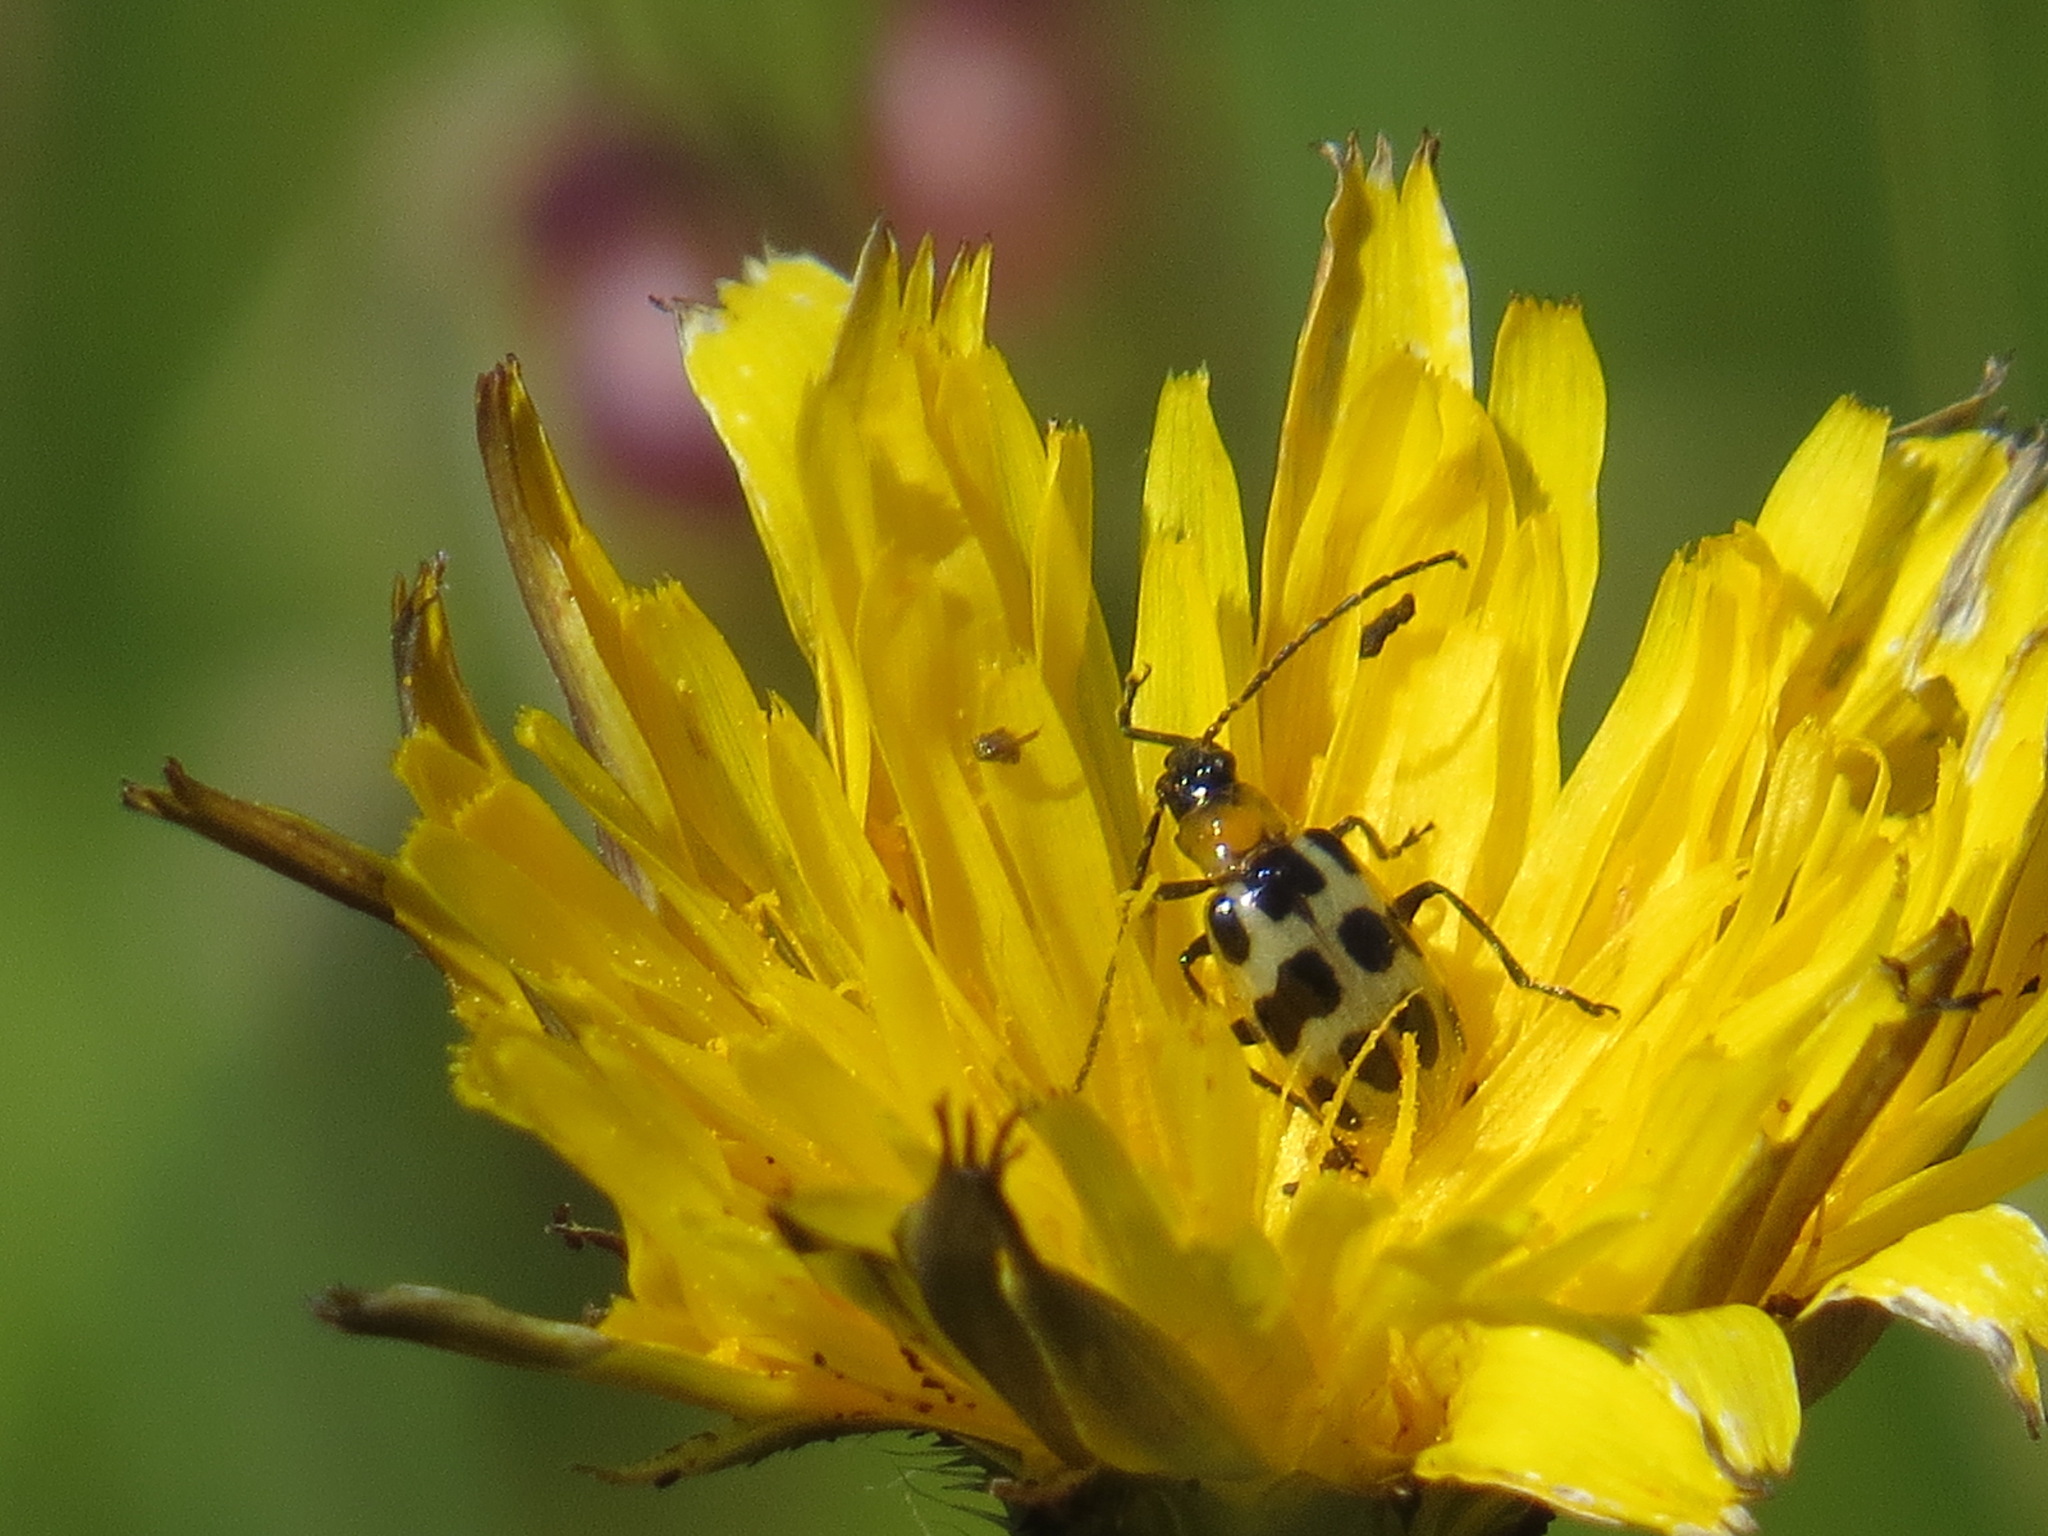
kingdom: Animalia
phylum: Arthropoda
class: Insecta
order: Coleoptera
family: Chrysomelidae
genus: Diabrotica
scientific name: Diabrotica undecimpunctata
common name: Spotted cucumber beetle
